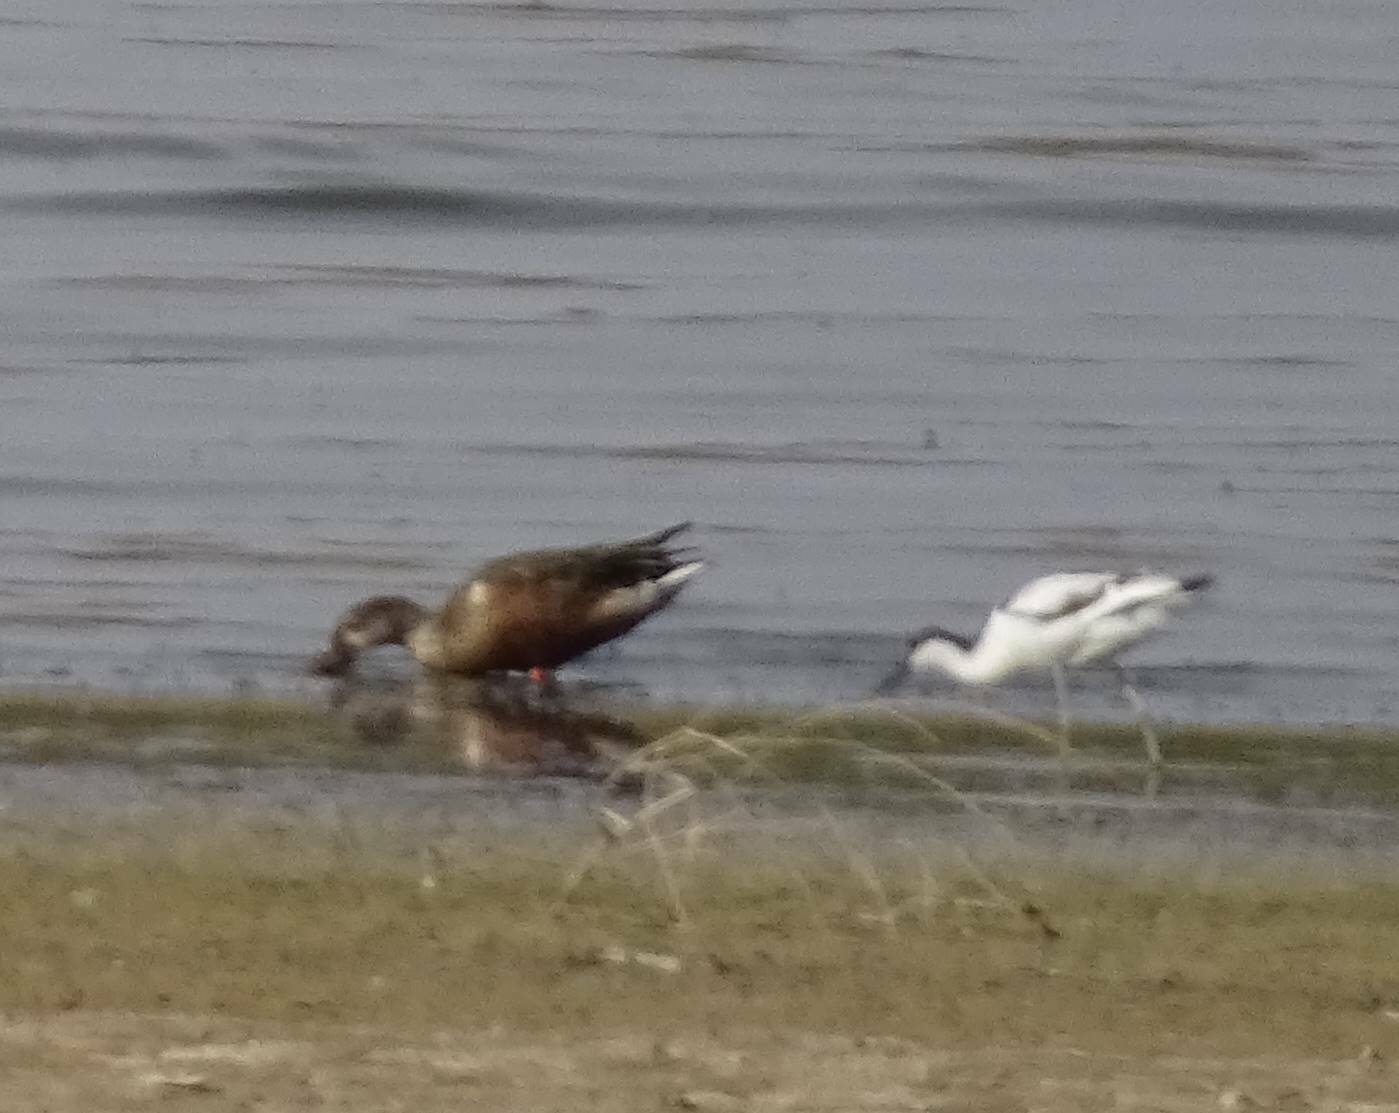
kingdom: Animalia
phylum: Chordata
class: Aves
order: Anseriformes
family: Anatidae
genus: Spatula
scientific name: Spatula clypeata
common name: Northern shoveler
